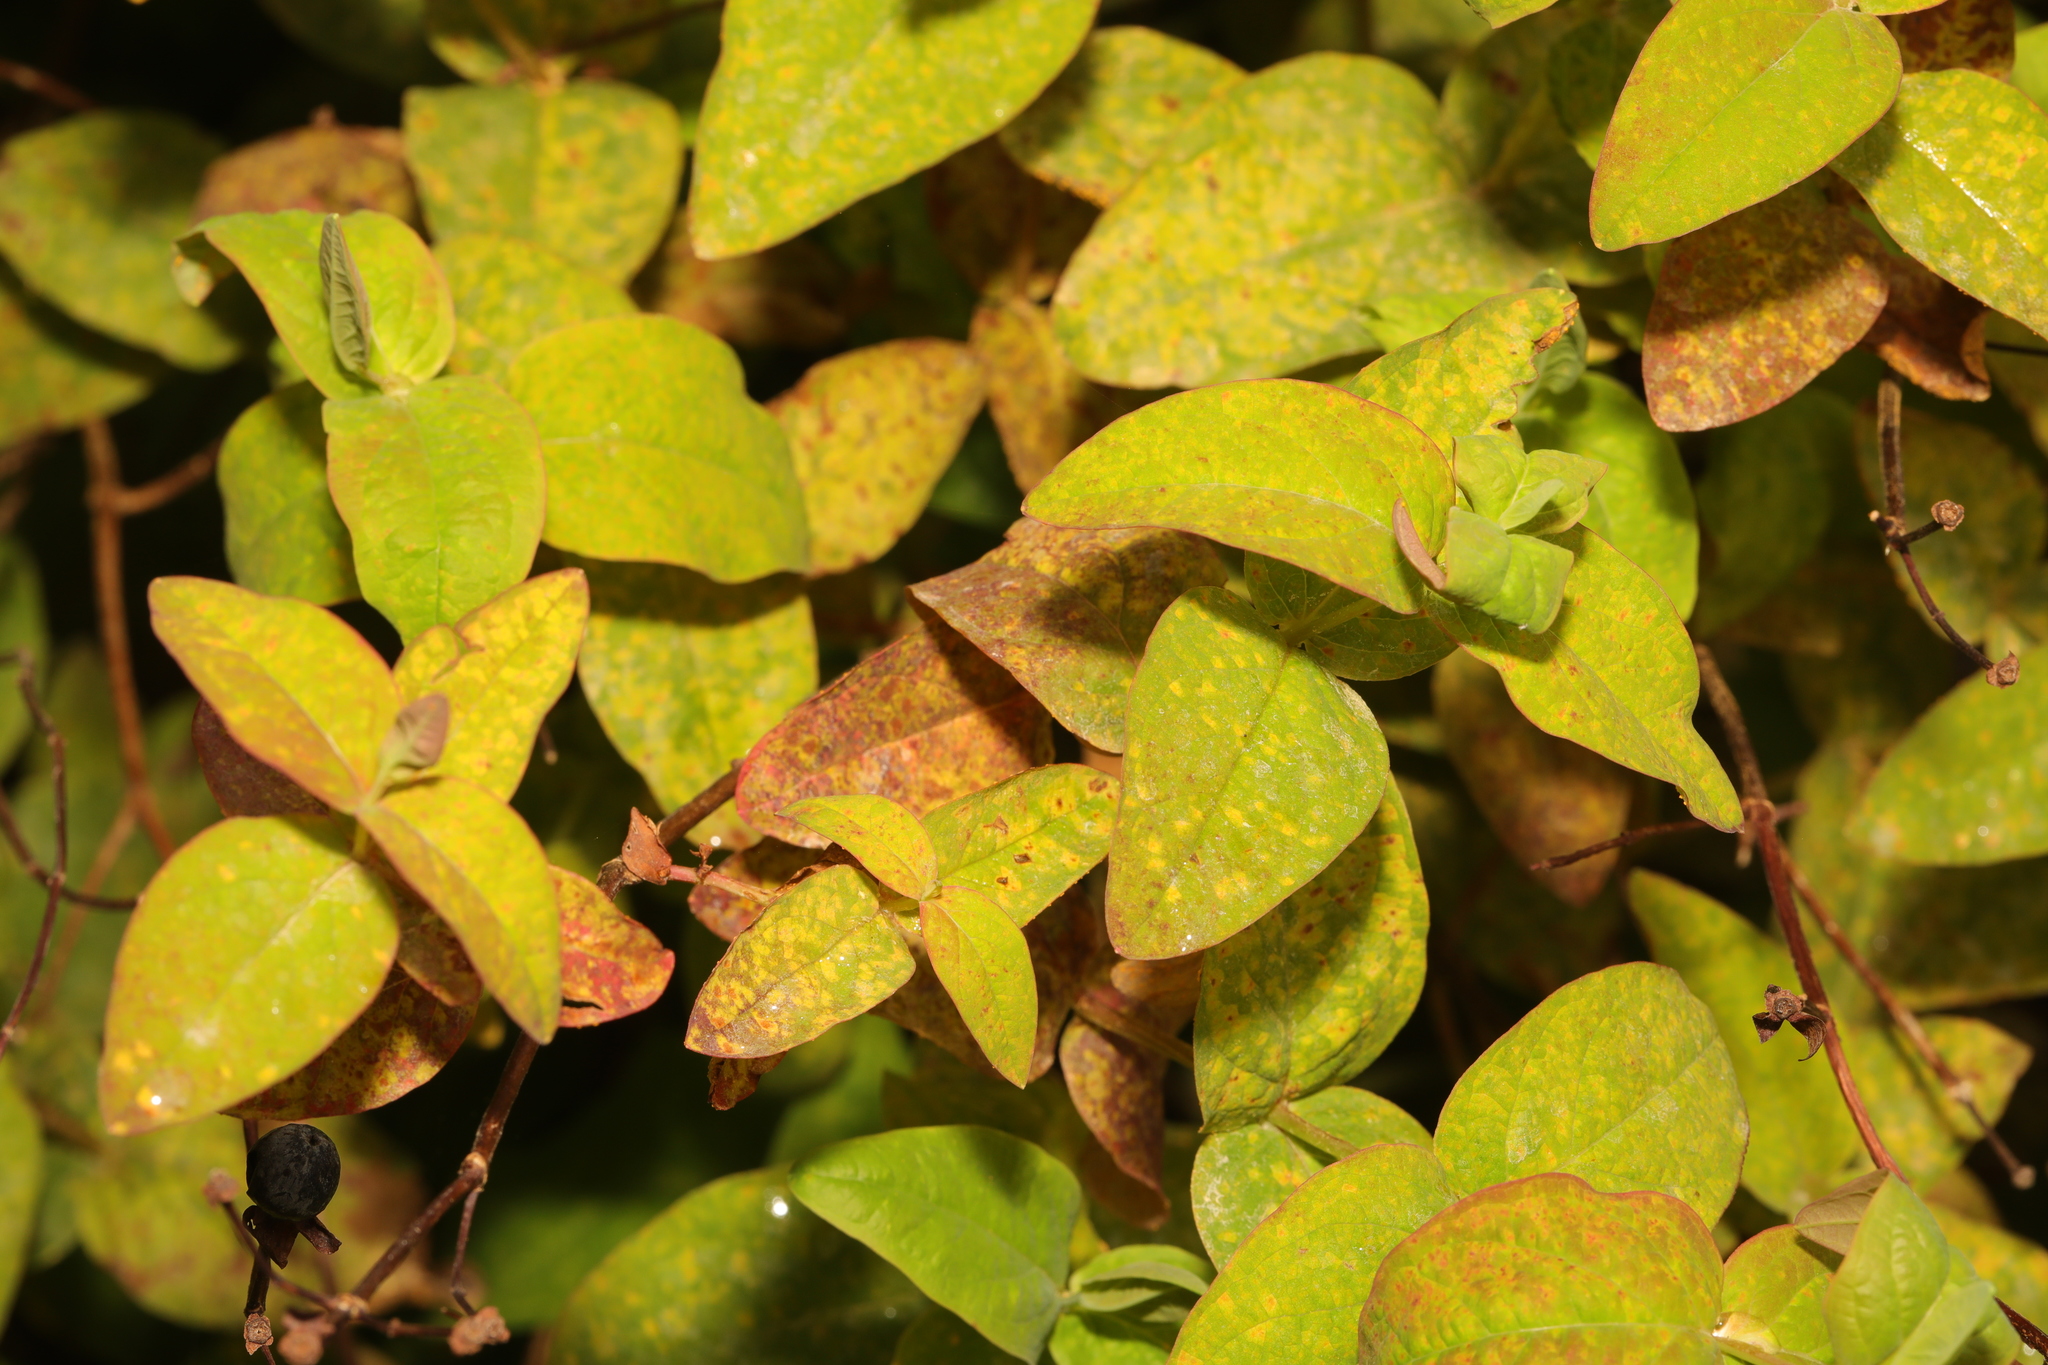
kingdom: Plantae
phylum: Tracheophyta
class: Magnoliopsida
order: Malpighiales
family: Hypericaceae
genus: Hypericum
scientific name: Hypericum androsaemum
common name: Sweet-amber
